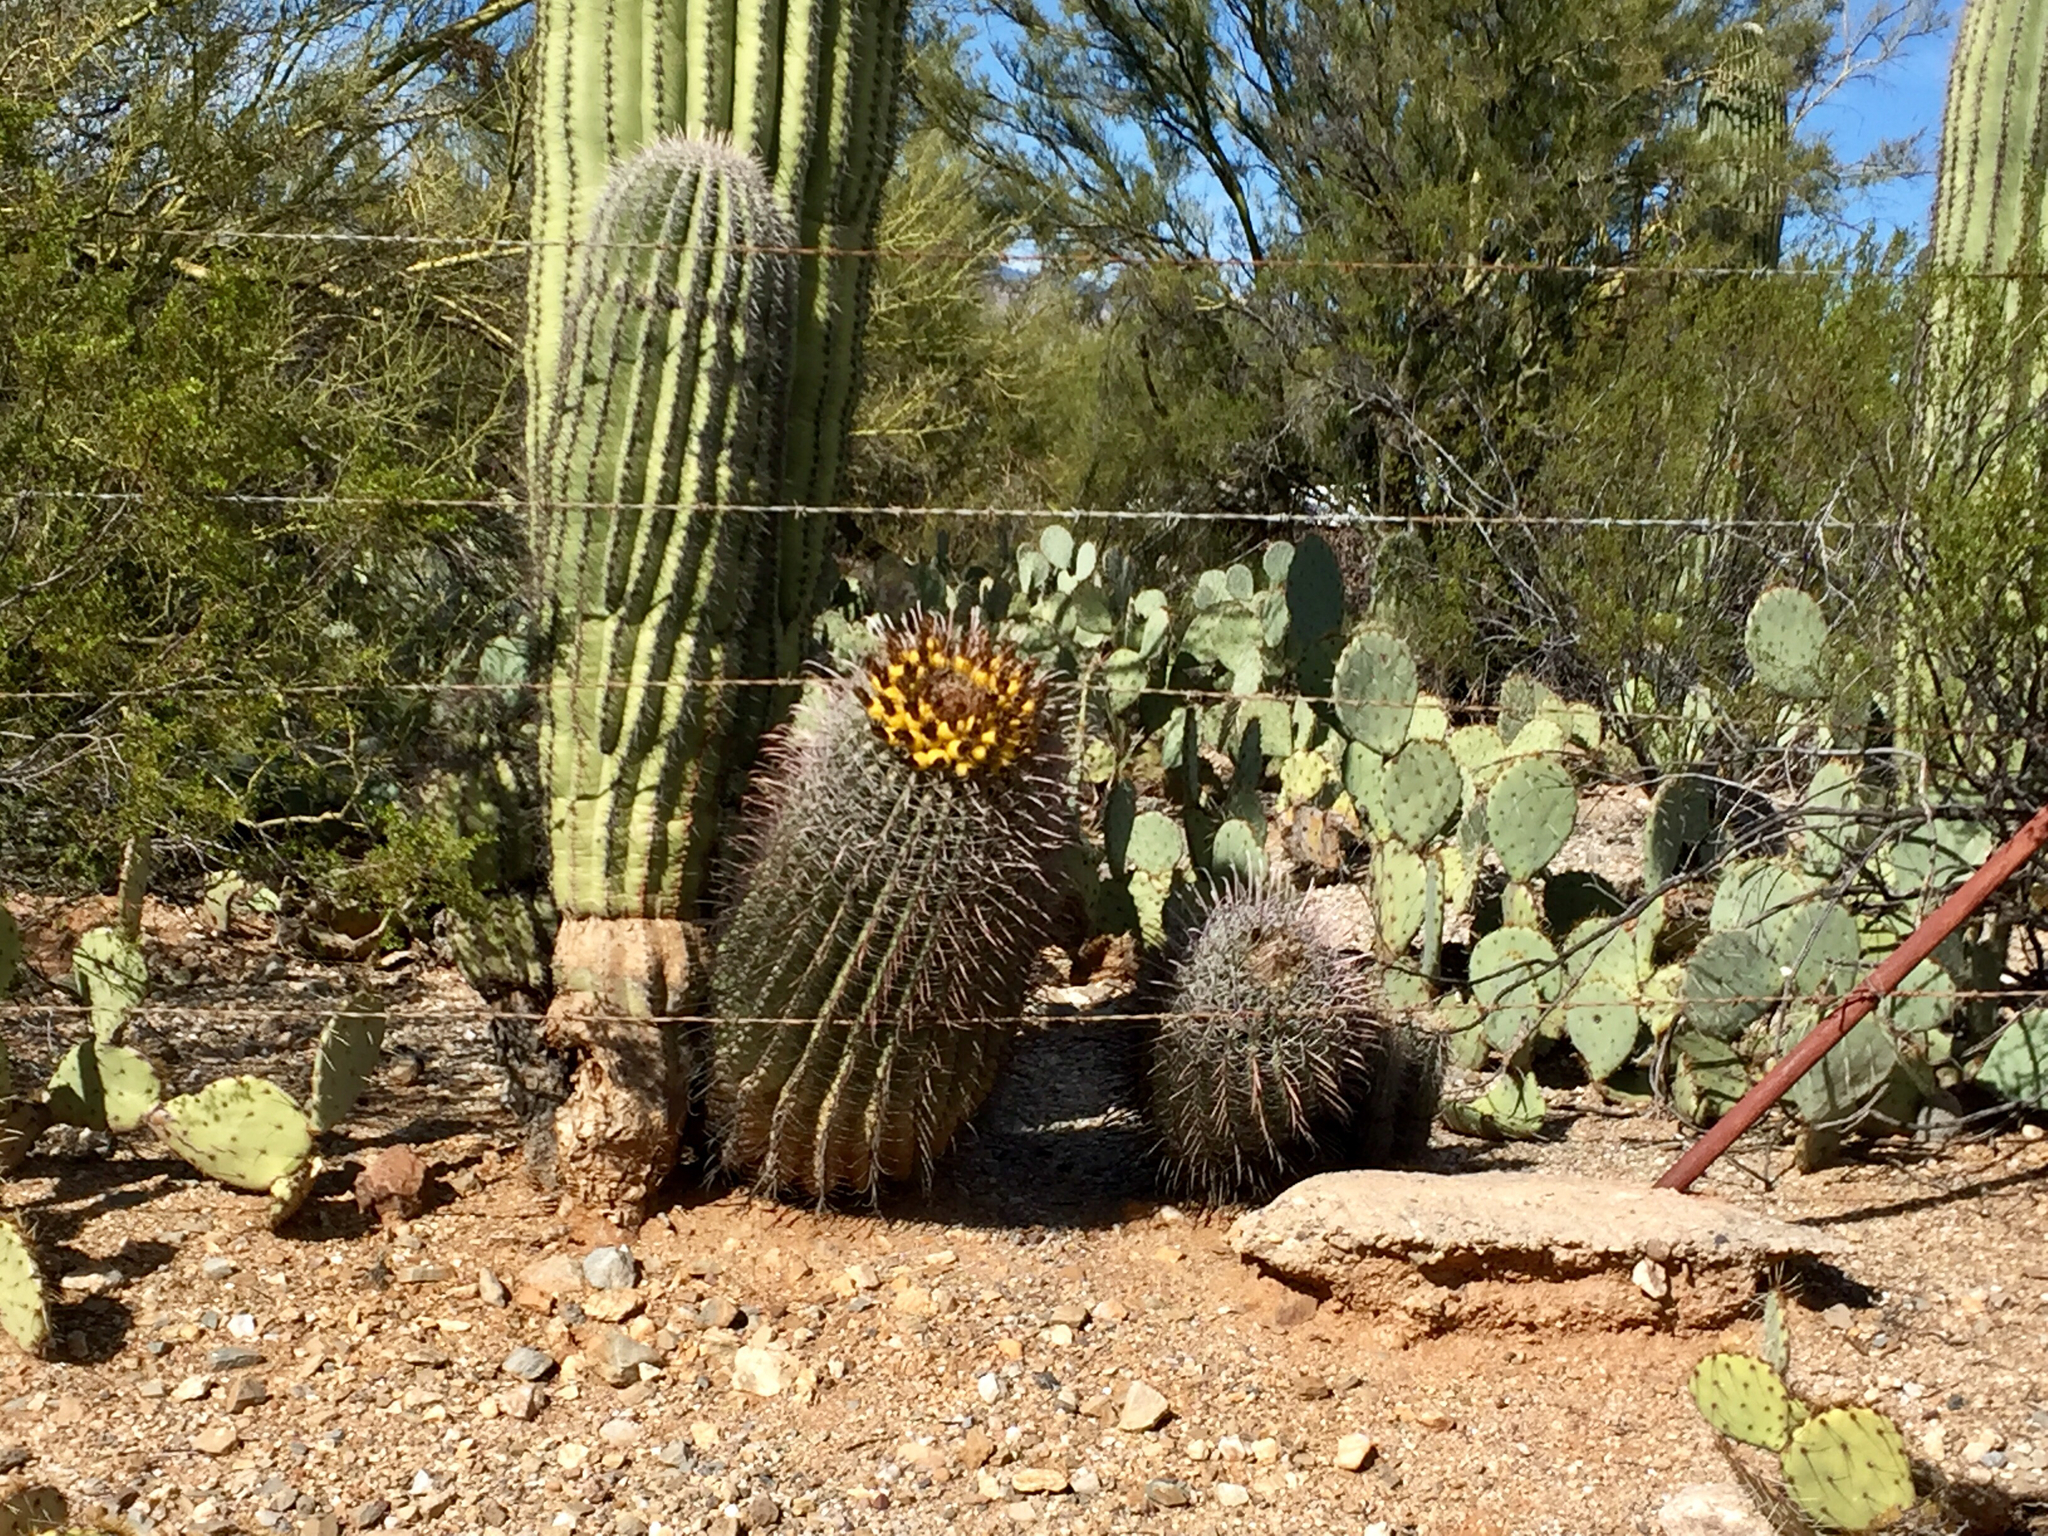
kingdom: Plantae
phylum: Tracheophyta
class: Magnoliopsida
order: Caryophyllales
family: Cactaceae
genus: Ferocactus
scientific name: Ferocactus wislizeni
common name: Candy barrel cactus
